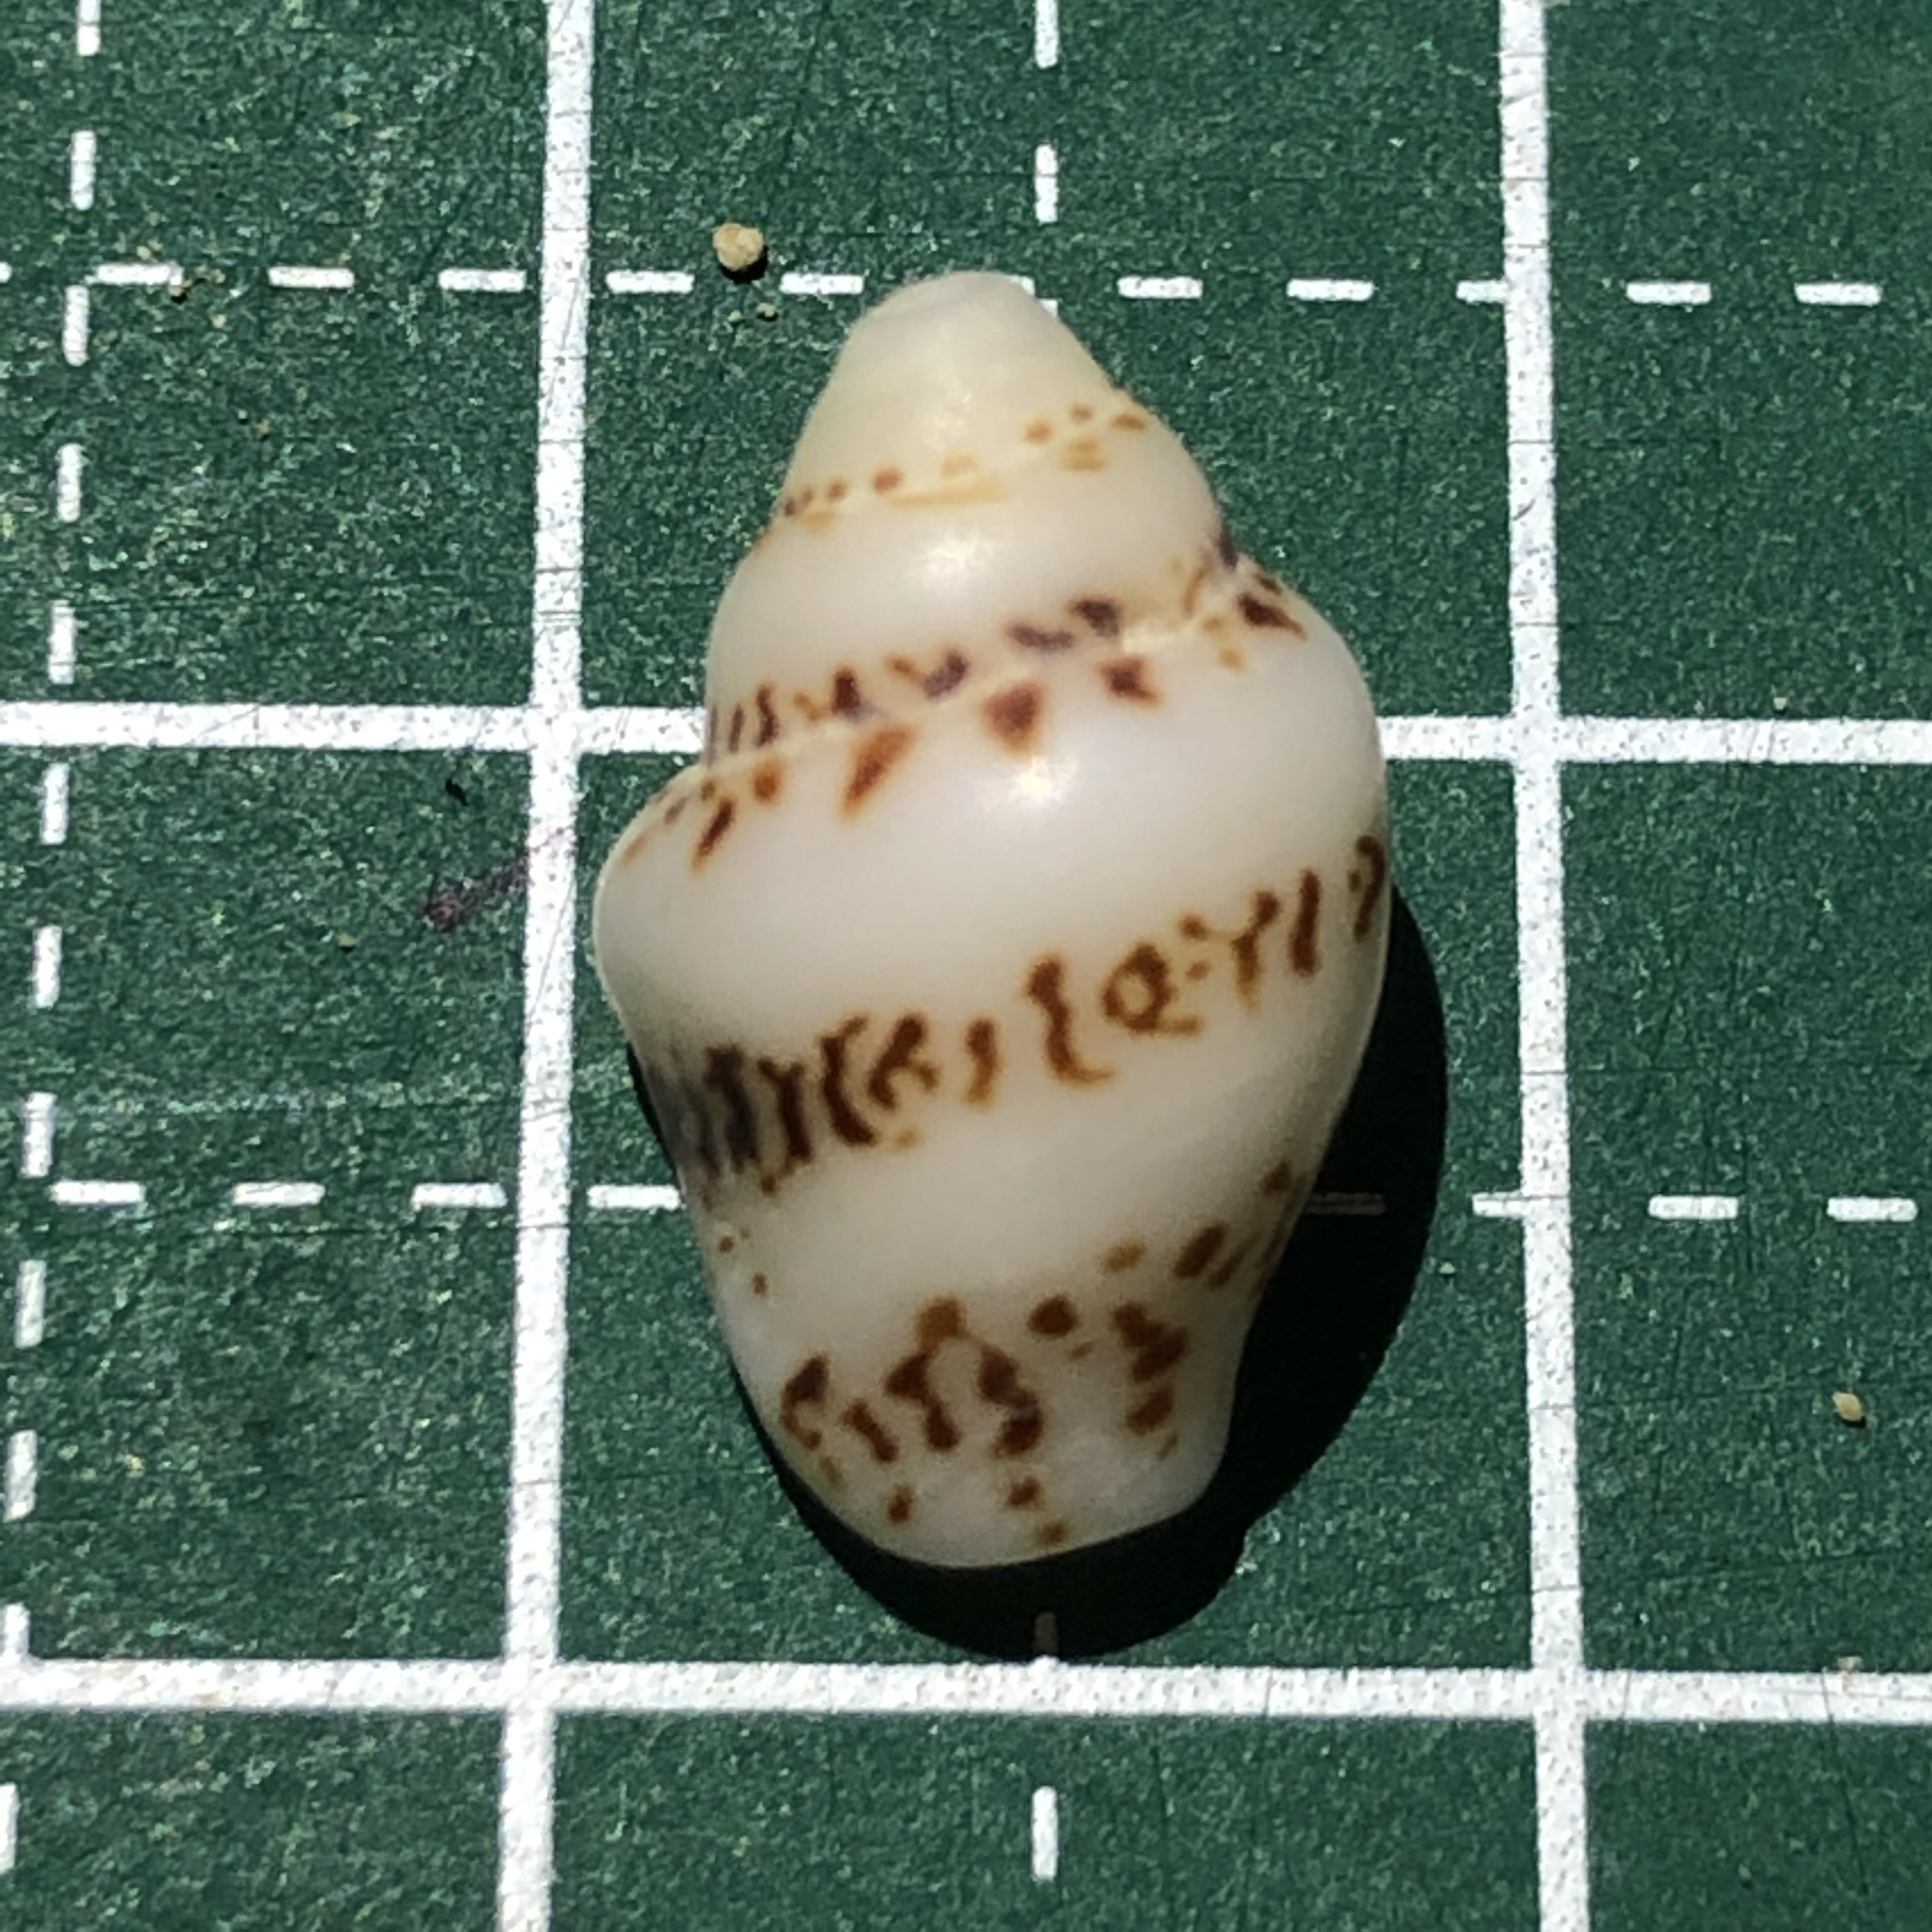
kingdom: Animalia
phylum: Mollusca
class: Gastropoda
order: Neogastropoda
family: Columbellidae
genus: Euplica
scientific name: Euplica scripta
